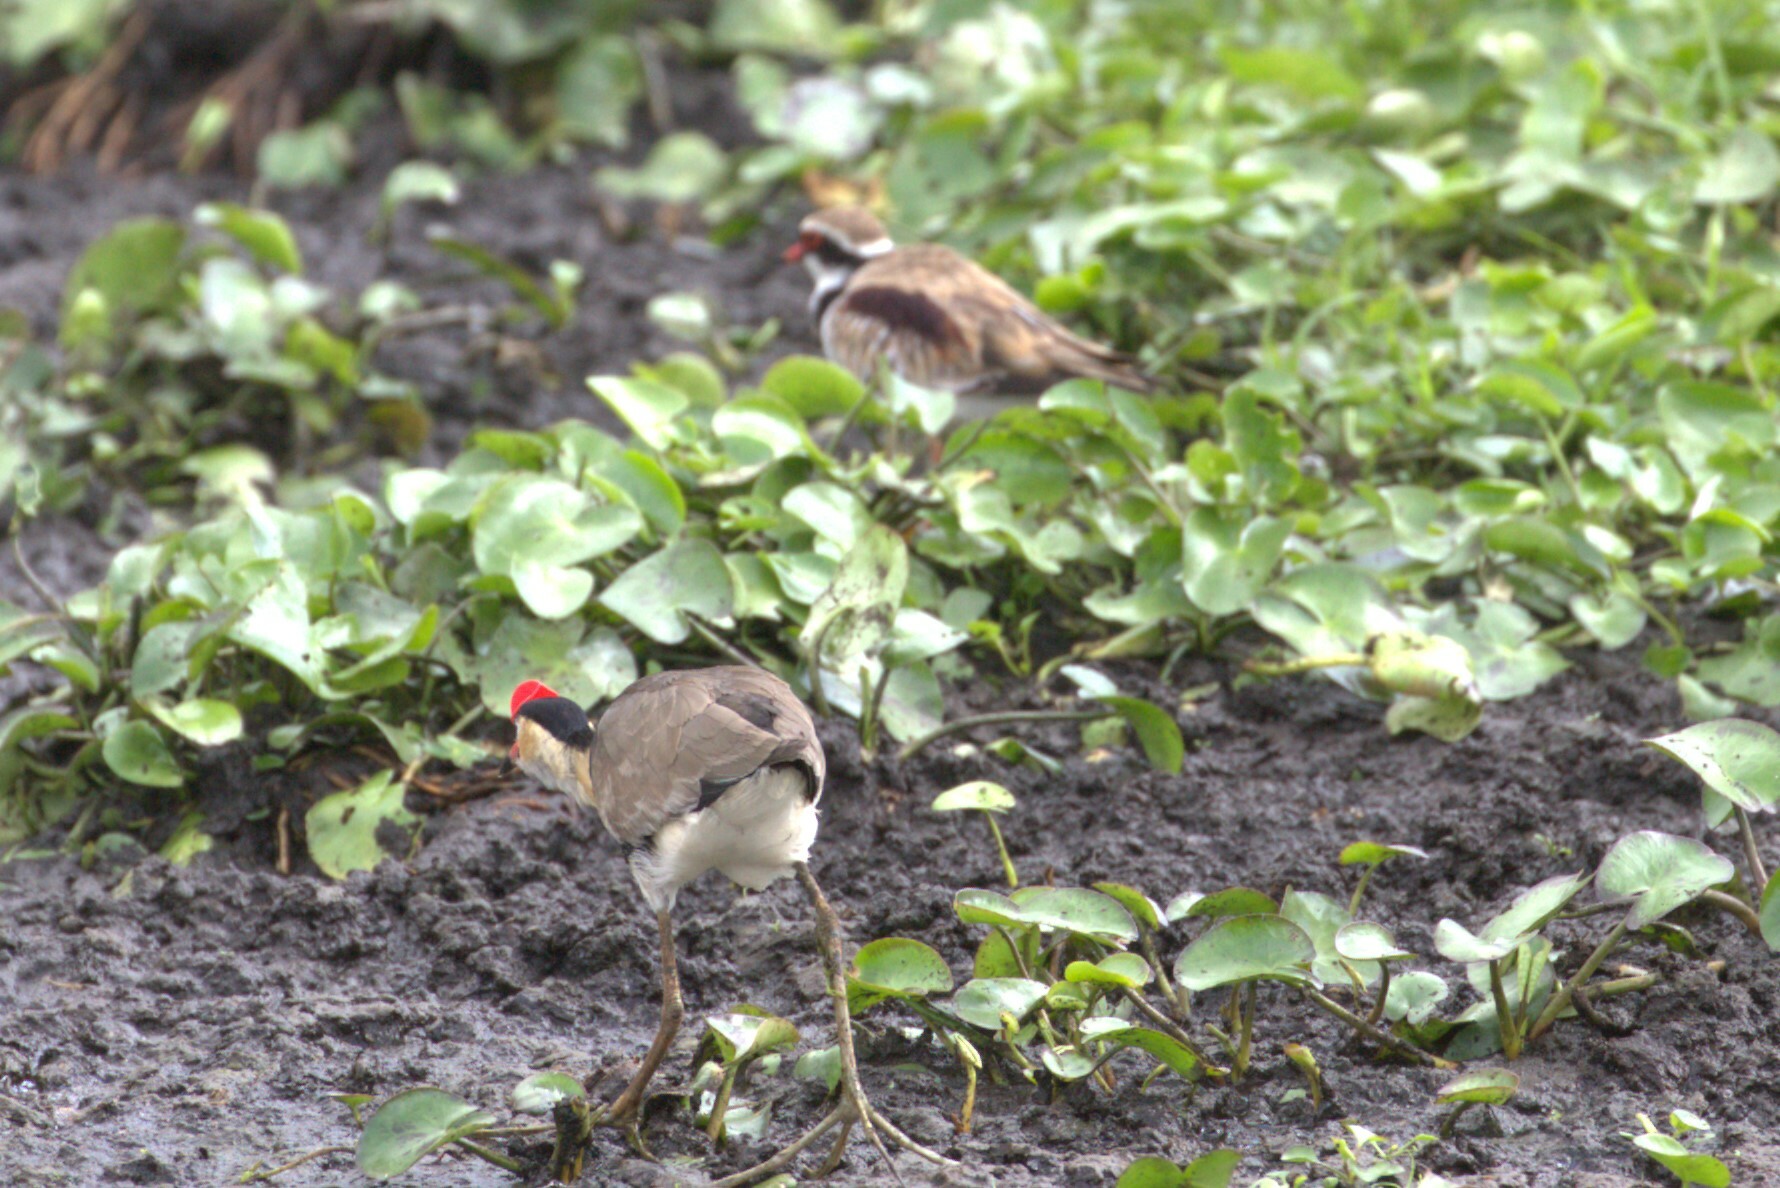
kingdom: Animalia
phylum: Chordata
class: Aves
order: Charadriiformes
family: Jacanidae
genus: Irediparra
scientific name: Irediparra gallinacea
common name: Comb-crested jacana
